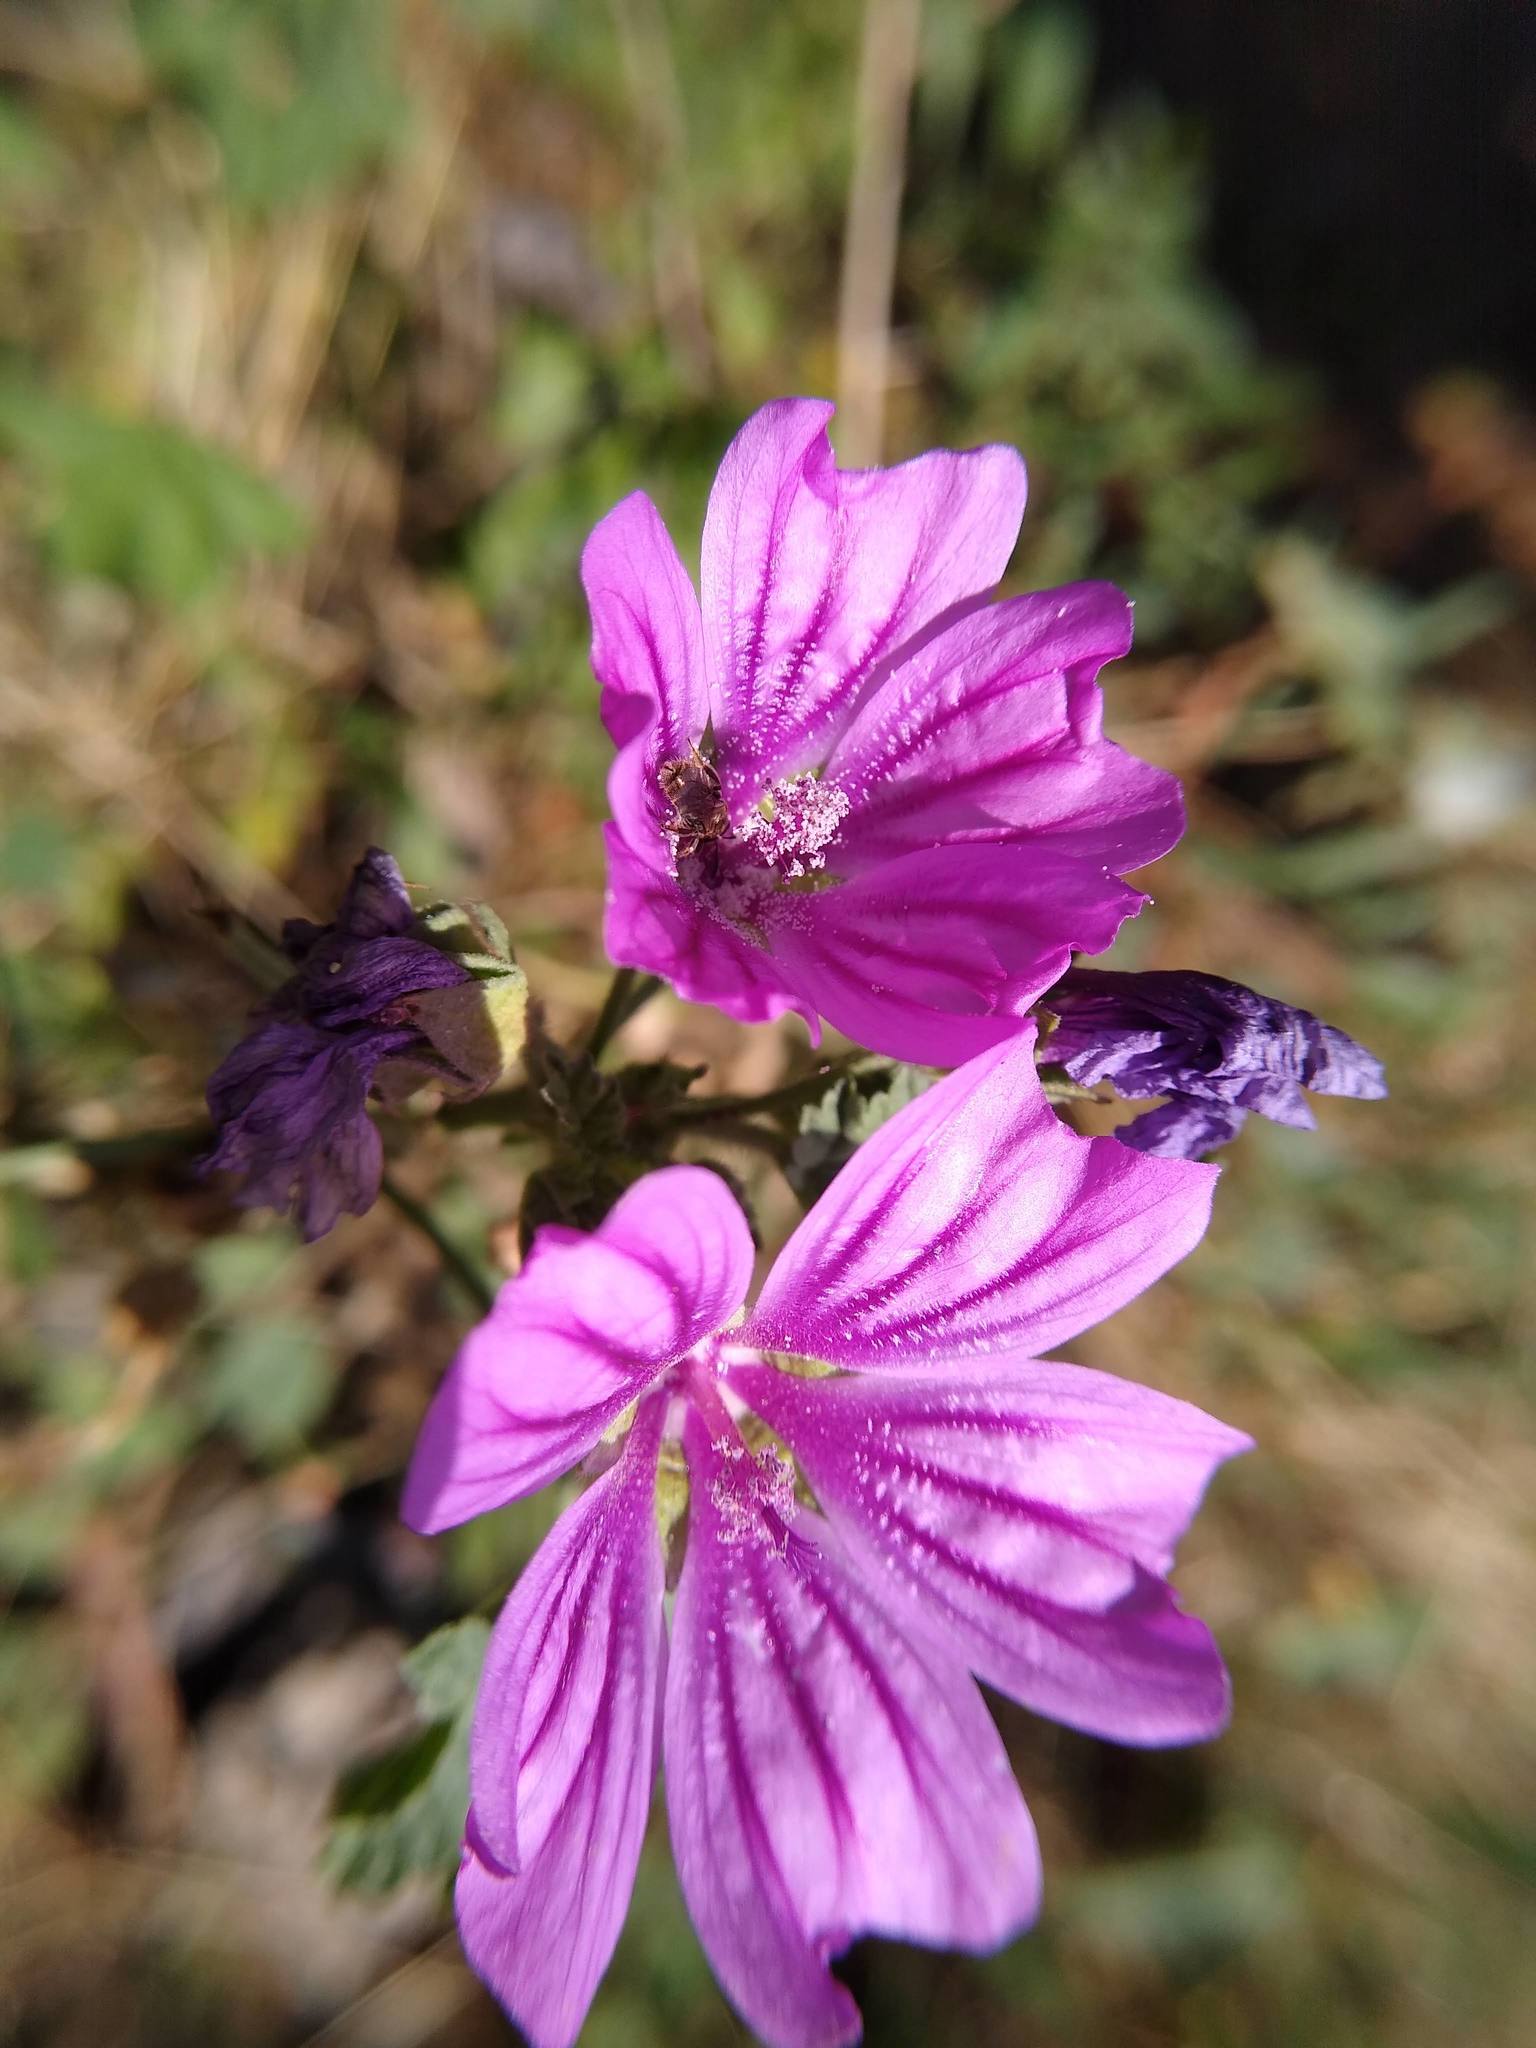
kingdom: Plantae
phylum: Tracheophyta
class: Magnoliopsida
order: Malvales
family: Malvaceae
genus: Malva
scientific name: Malva sylvestris
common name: Common mallow
